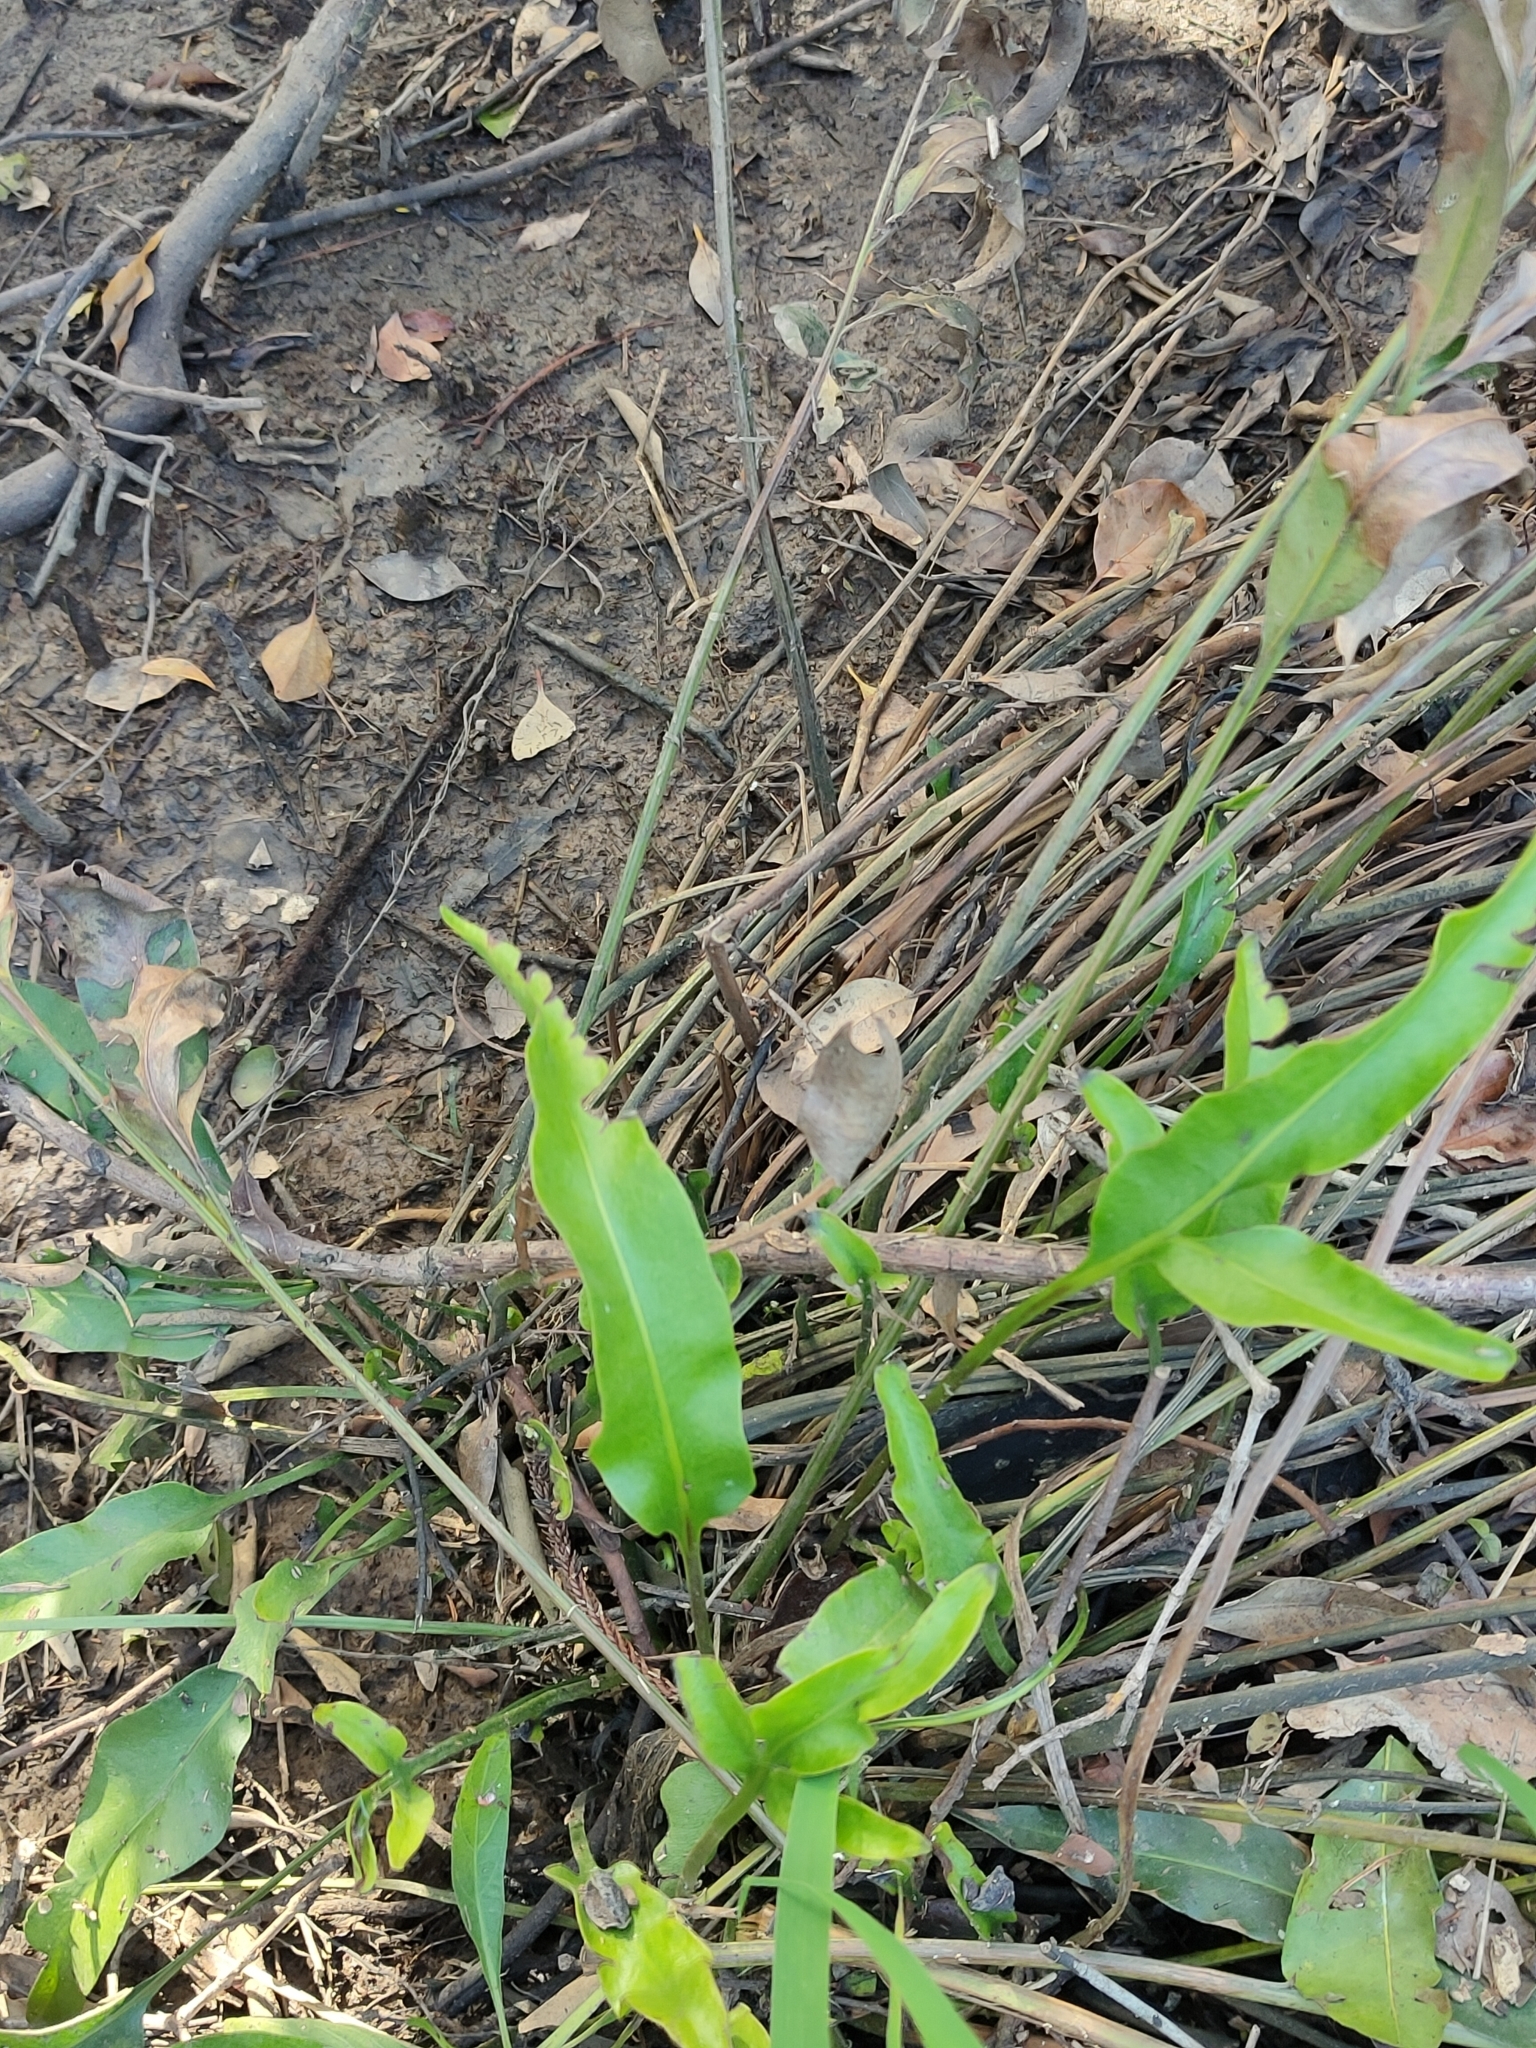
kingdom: Plantae
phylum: Tracheophyta
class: Polypodiopsida
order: Polypodiales
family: Pteridaceae
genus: Acrostichum
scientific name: Acrostichum speciosum
